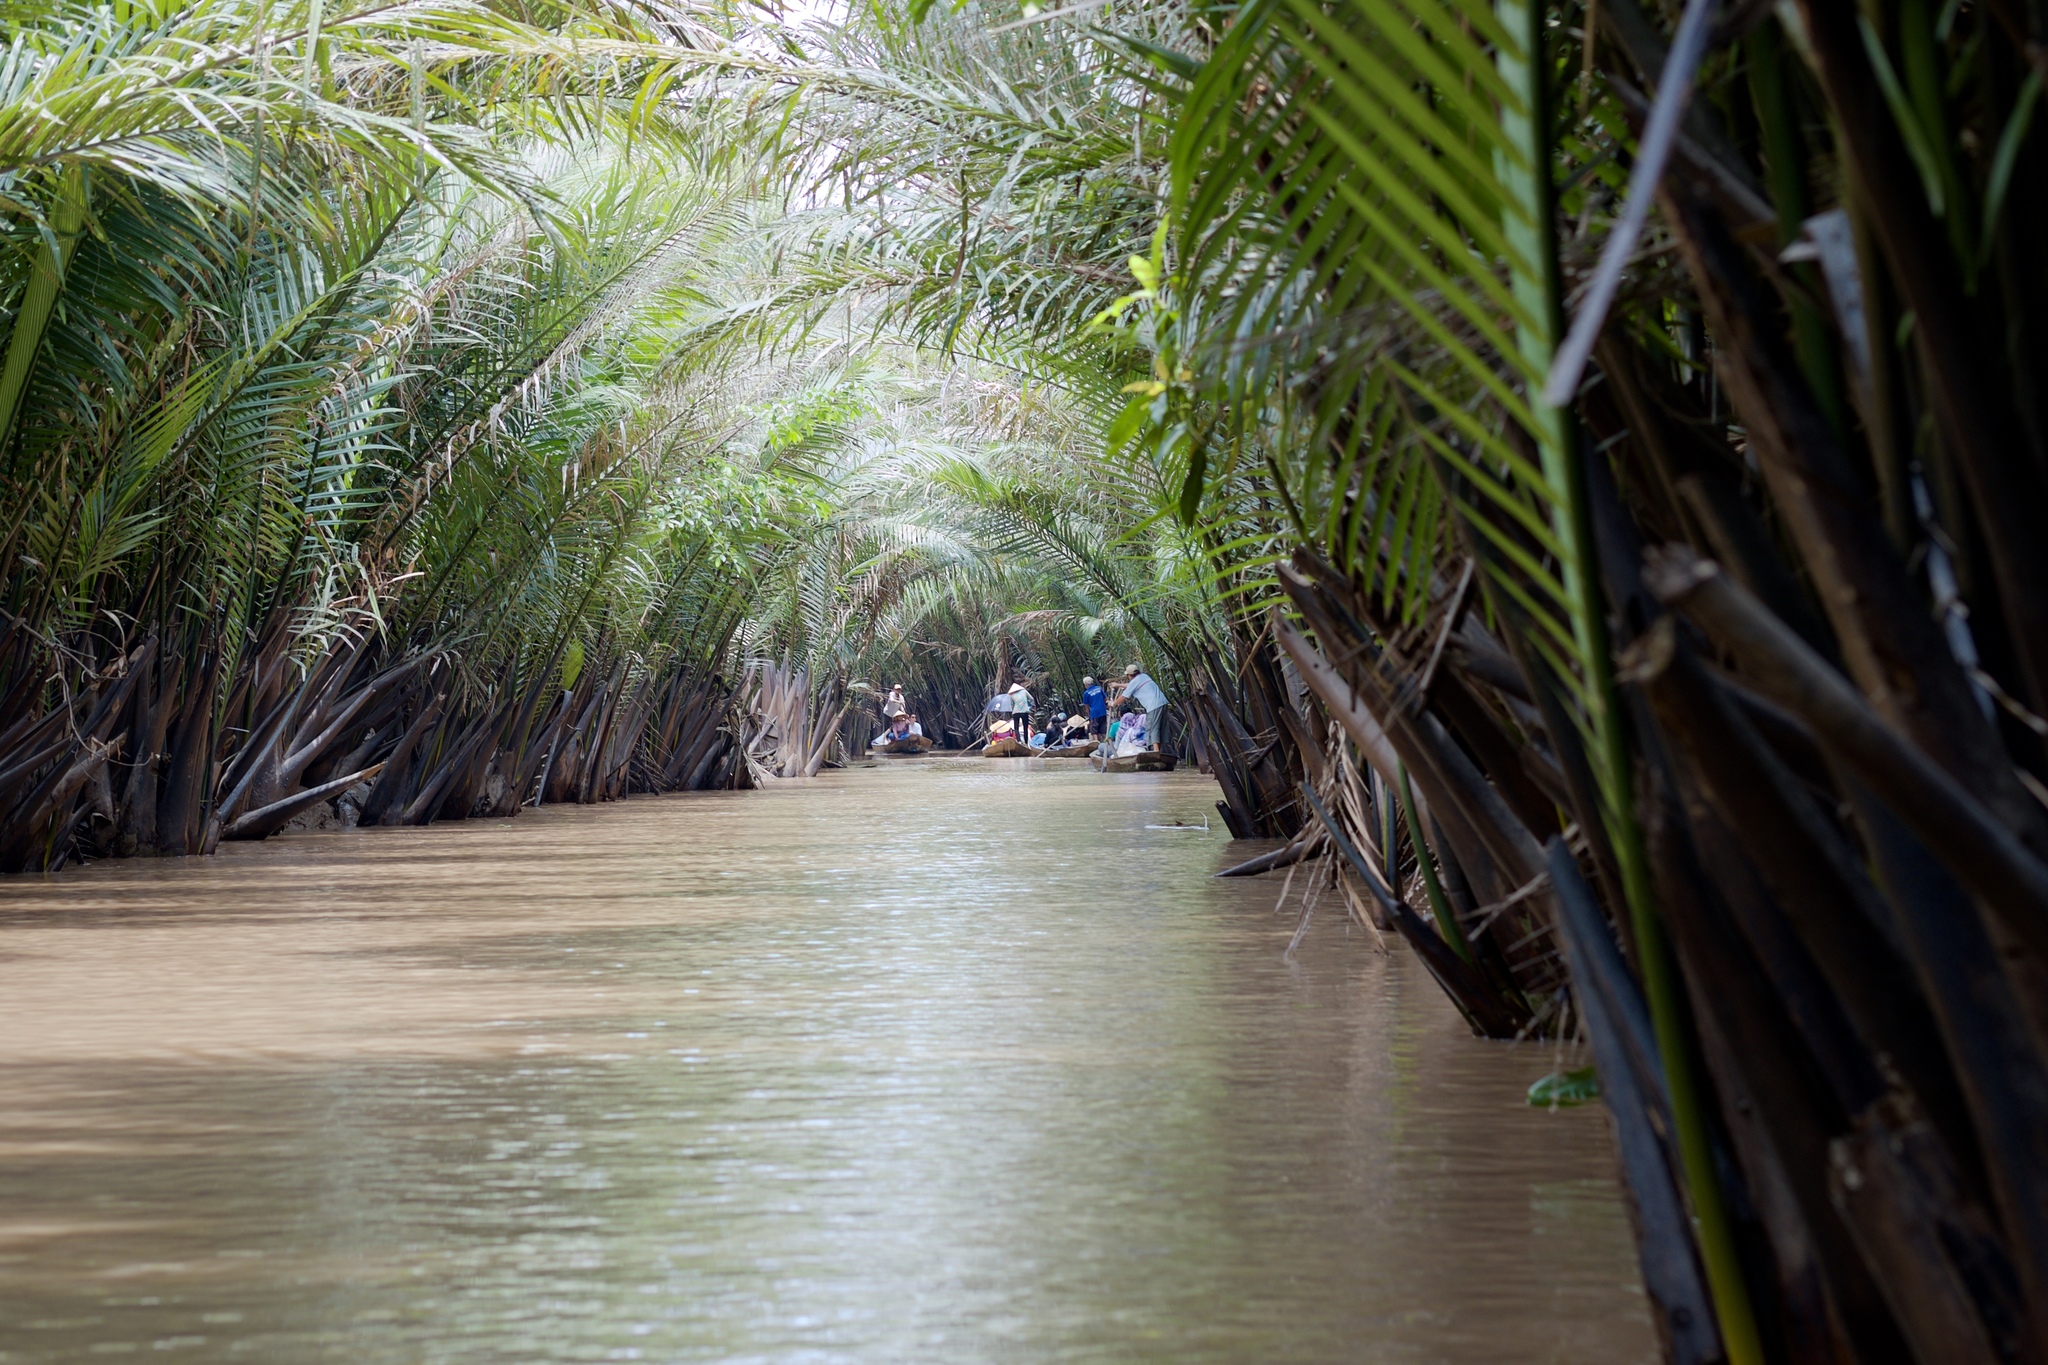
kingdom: Plantae
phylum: Tracheophyta
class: Liliopsida
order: Arecales
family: Arecaceae
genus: Nypa
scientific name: Nypa fruticans
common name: Mangrove palm
